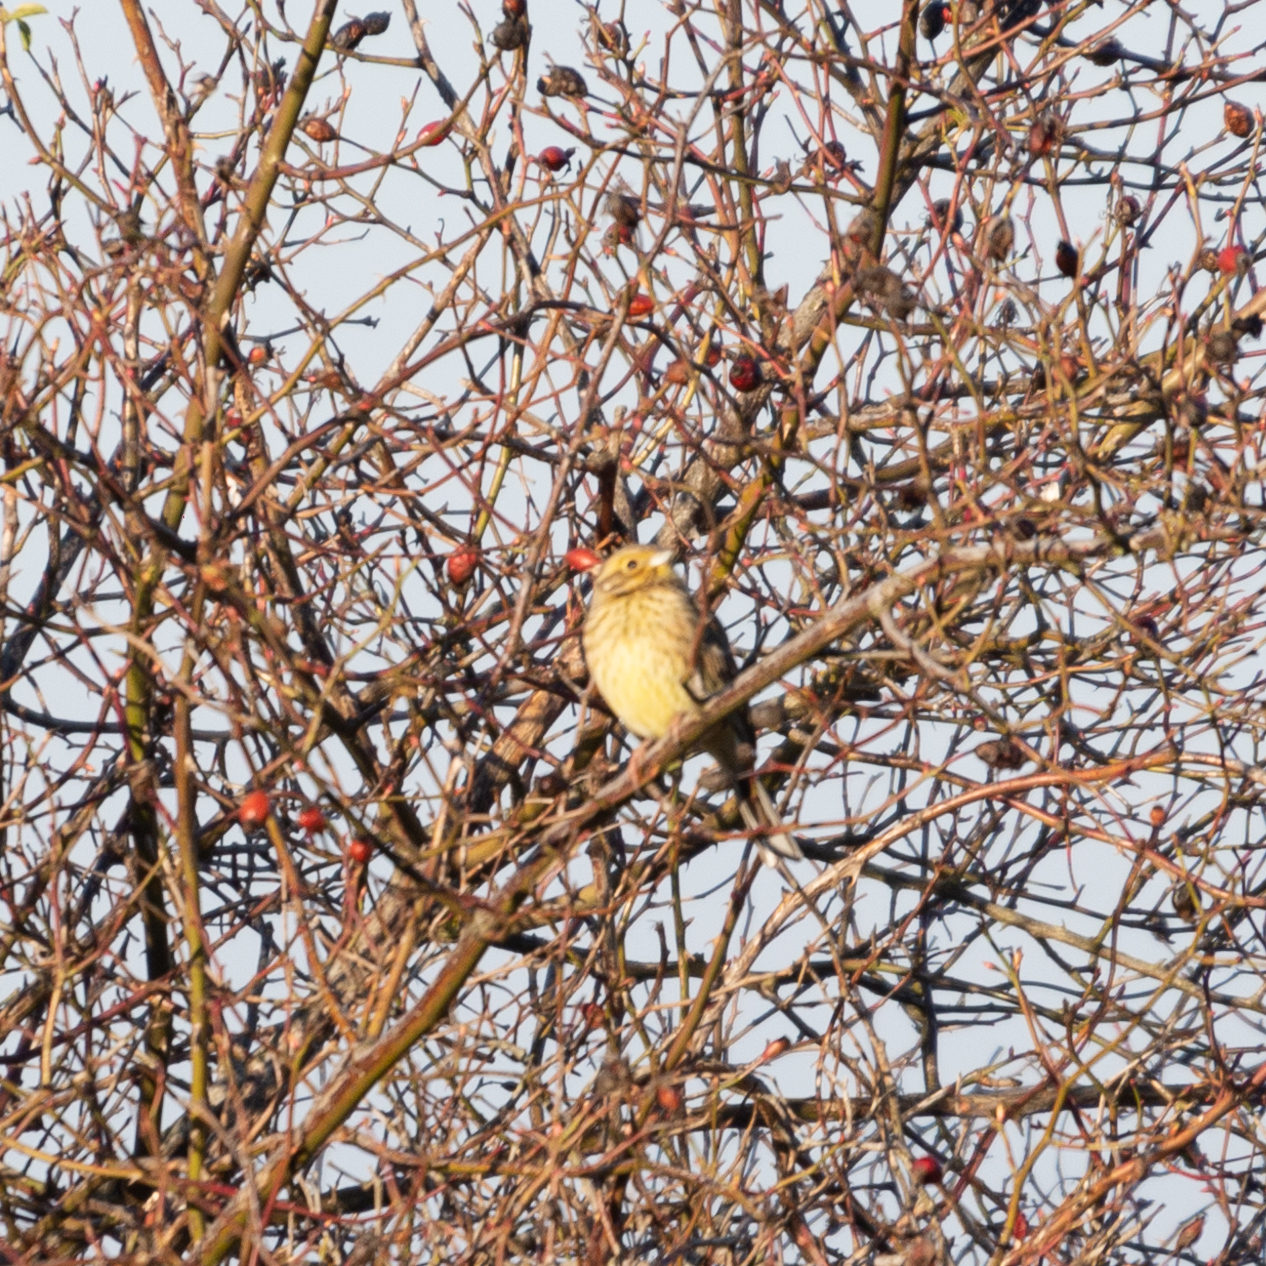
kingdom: Animalia
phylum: Chordata
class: Aves
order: Passeriformes
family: Emberizidae
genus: Emberiza
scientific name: Emberiza cirlus
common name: Cirl bunting
